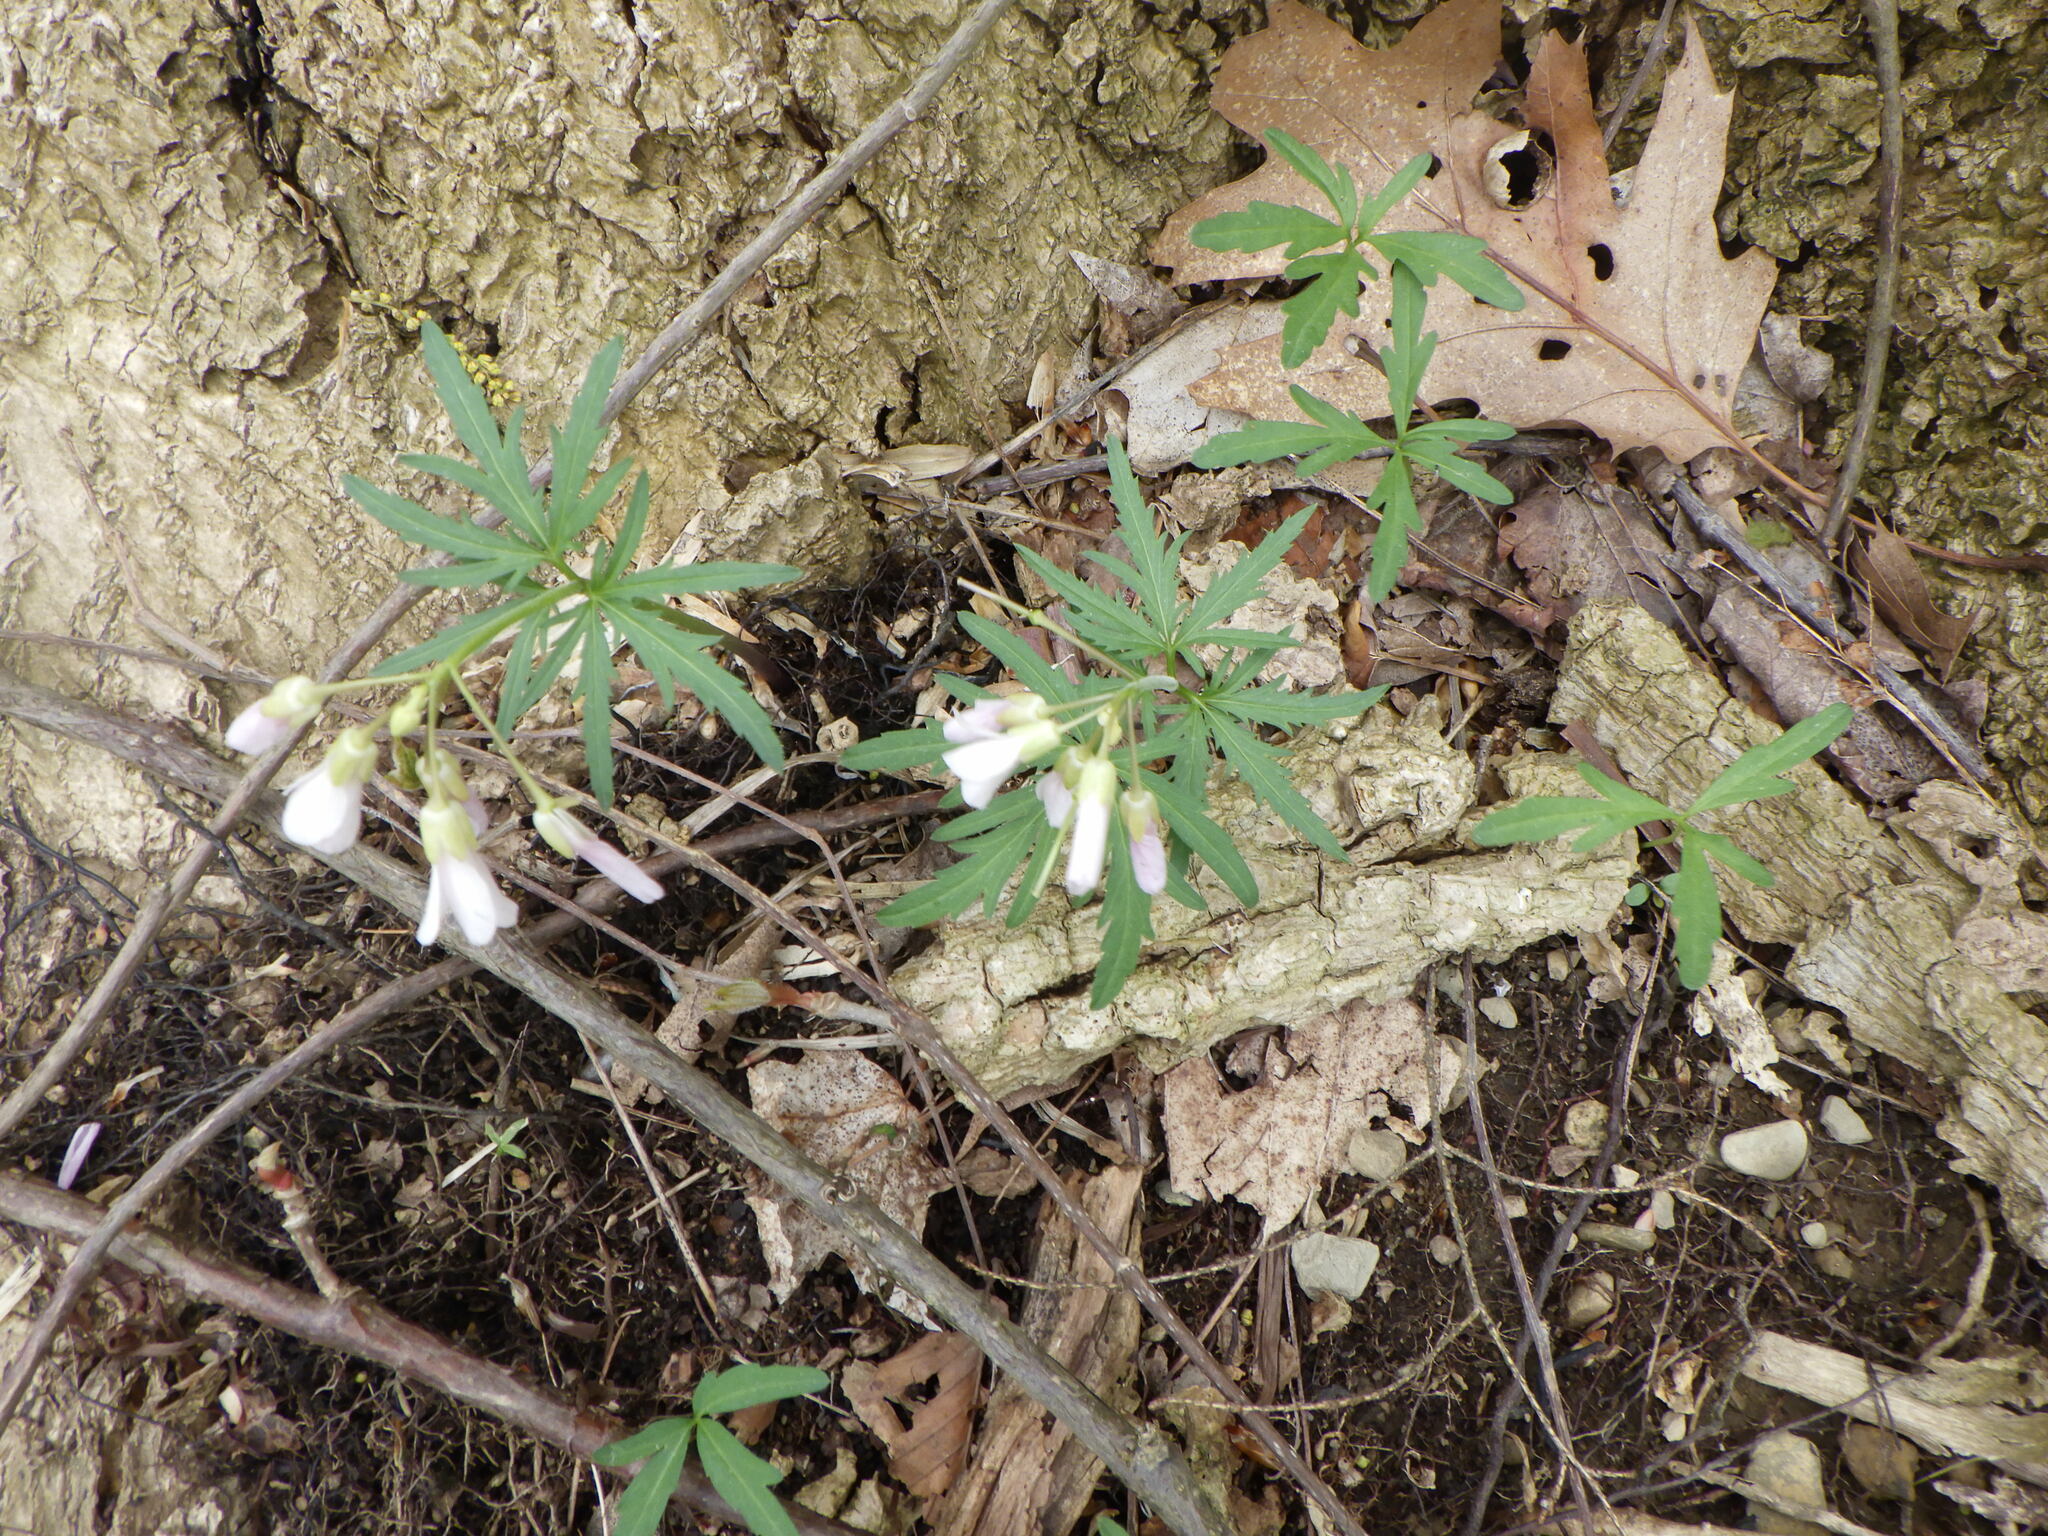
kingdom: Plantae
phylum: Tracheophyta
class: Magnoliopsida
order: Brassicales
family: Brassicaceae
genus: Cardamine
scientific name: Cardamine concatenata
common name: Cut-leaf toothcup
